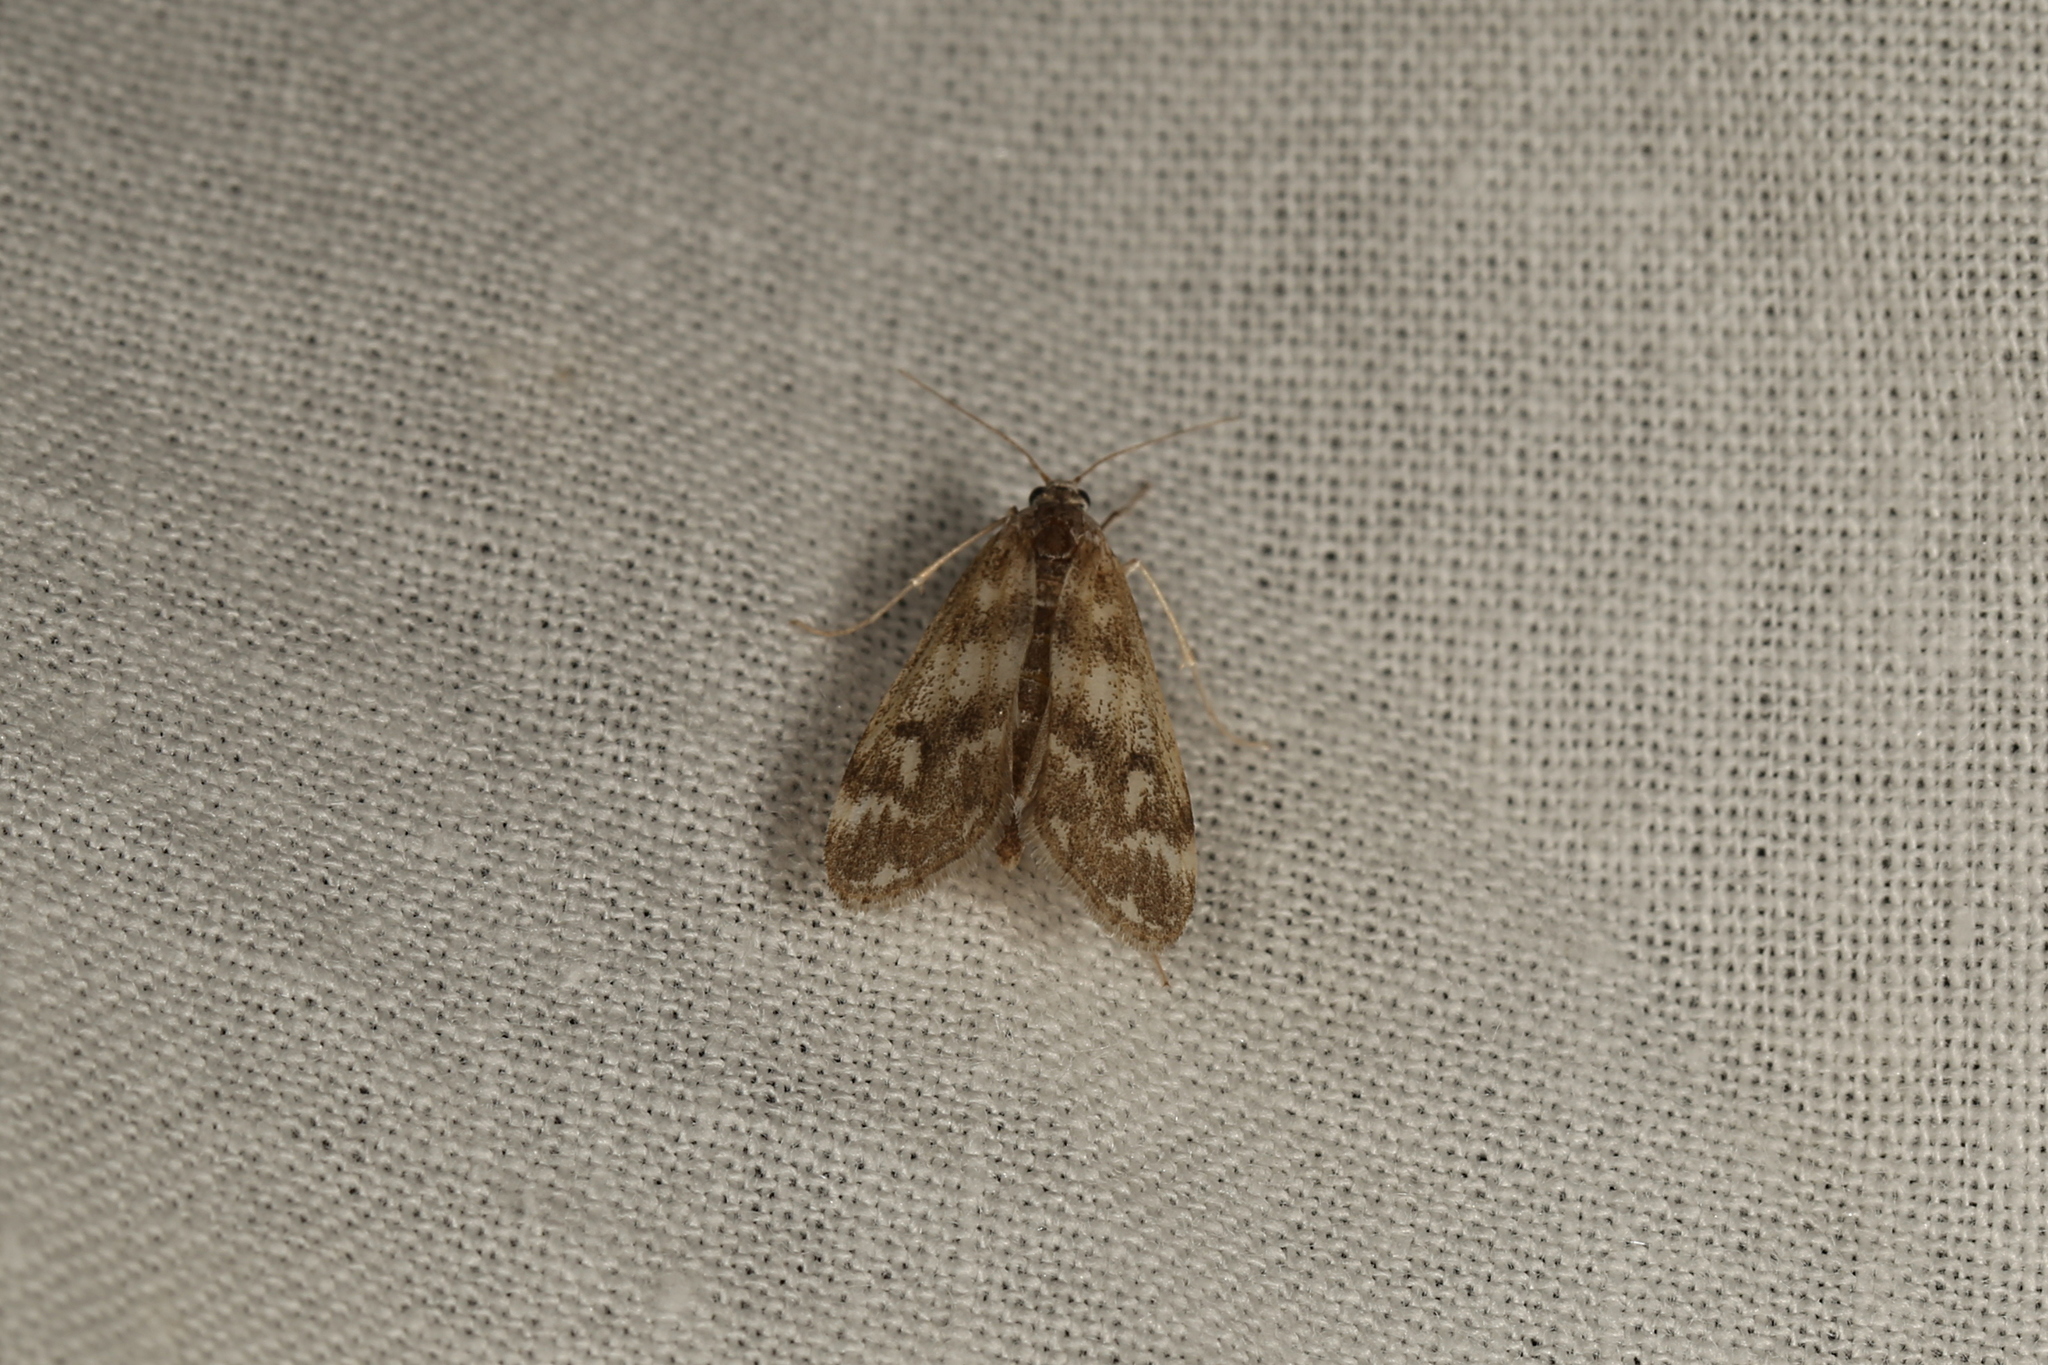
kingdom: Animalia
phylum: Arthropoda
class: Insecta
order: Lepidoptera
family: Crambidae
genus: Hygraula
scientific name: Hygraula nitens
